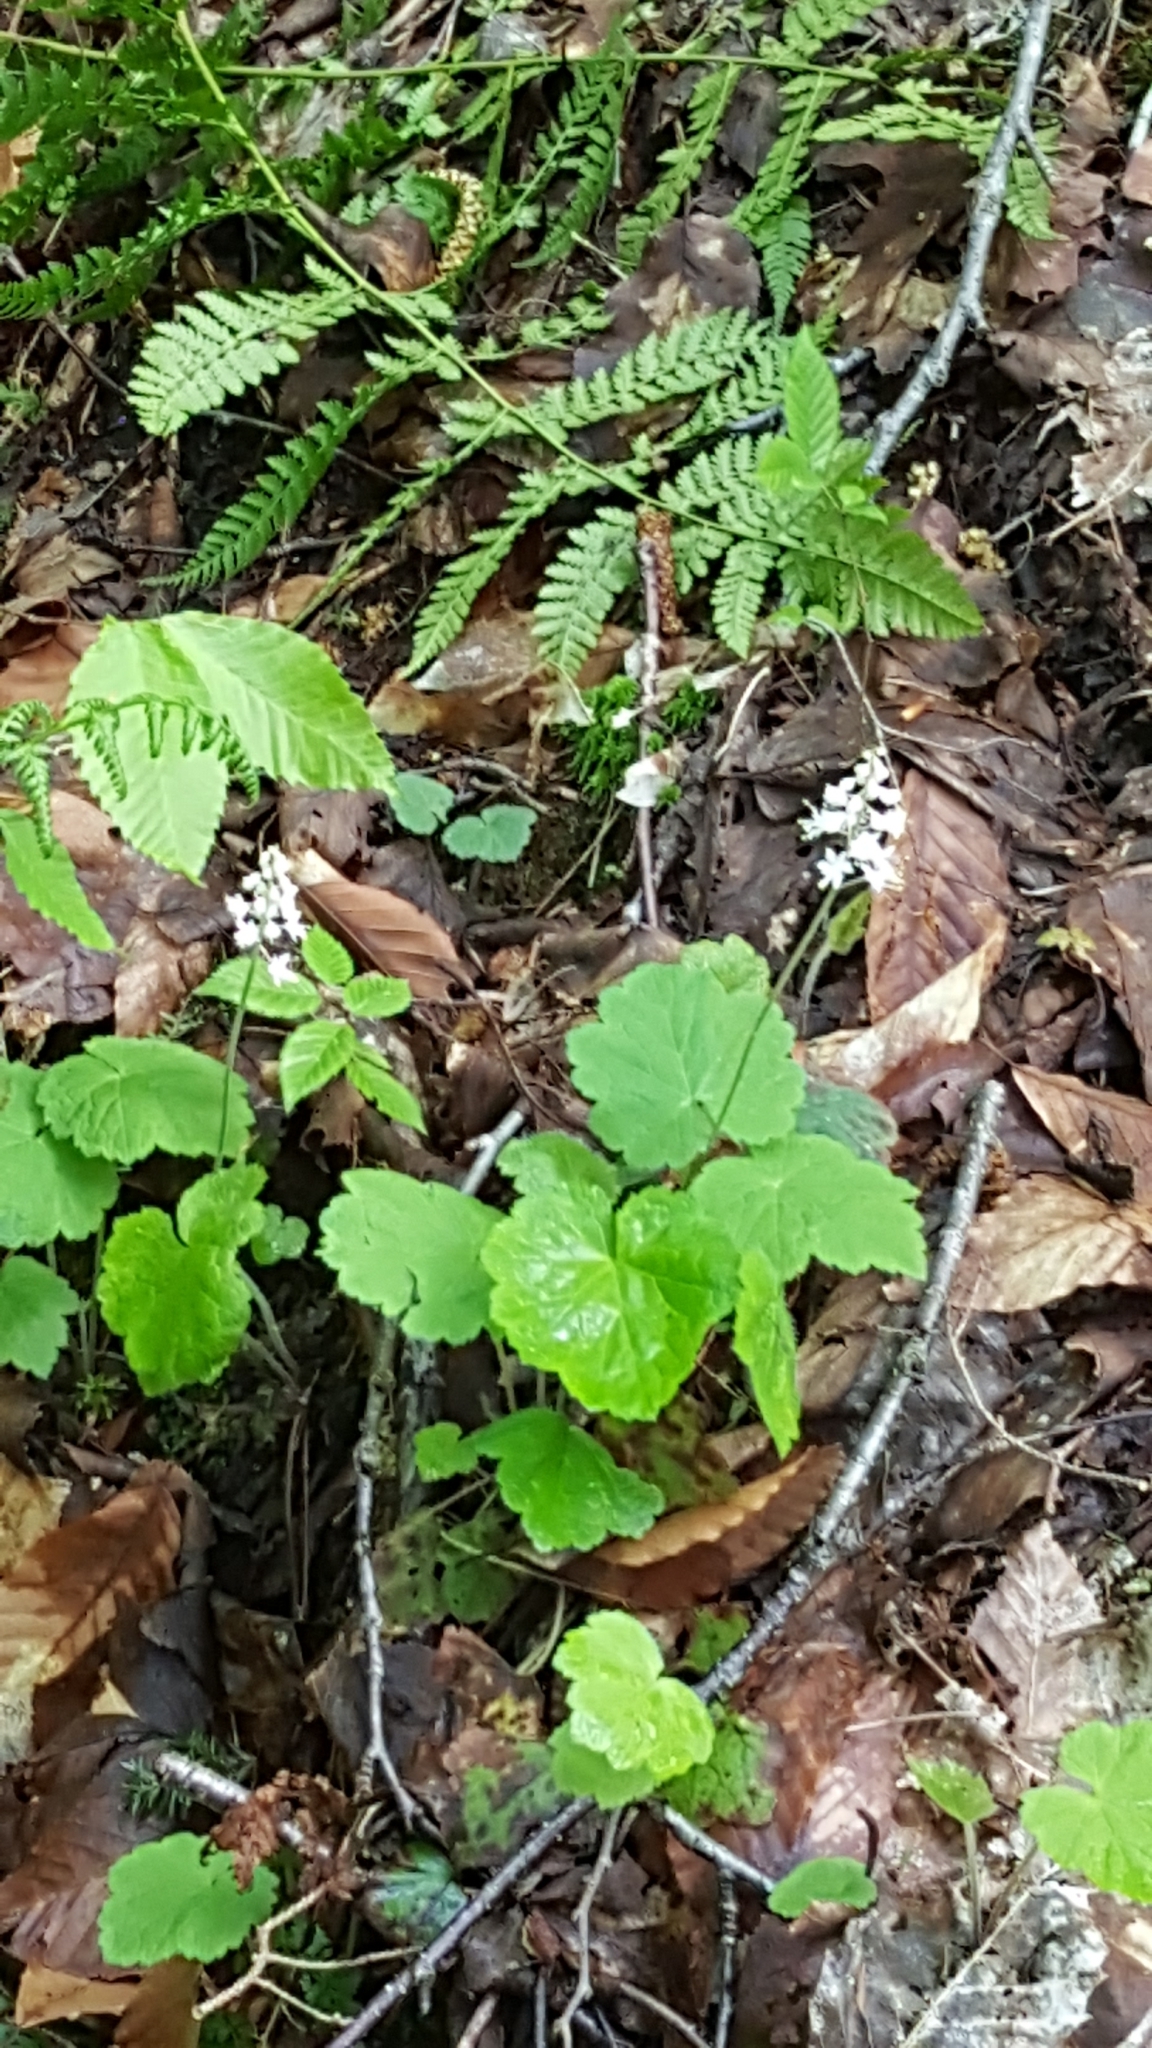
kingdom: Plantae
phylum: Tracheophyta
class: Magnoliopsida
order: Saxifragales
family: Saxifragaceae
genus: Tiarella
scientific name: Tiarella stolonifera
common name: Stoloniferous foamflower
